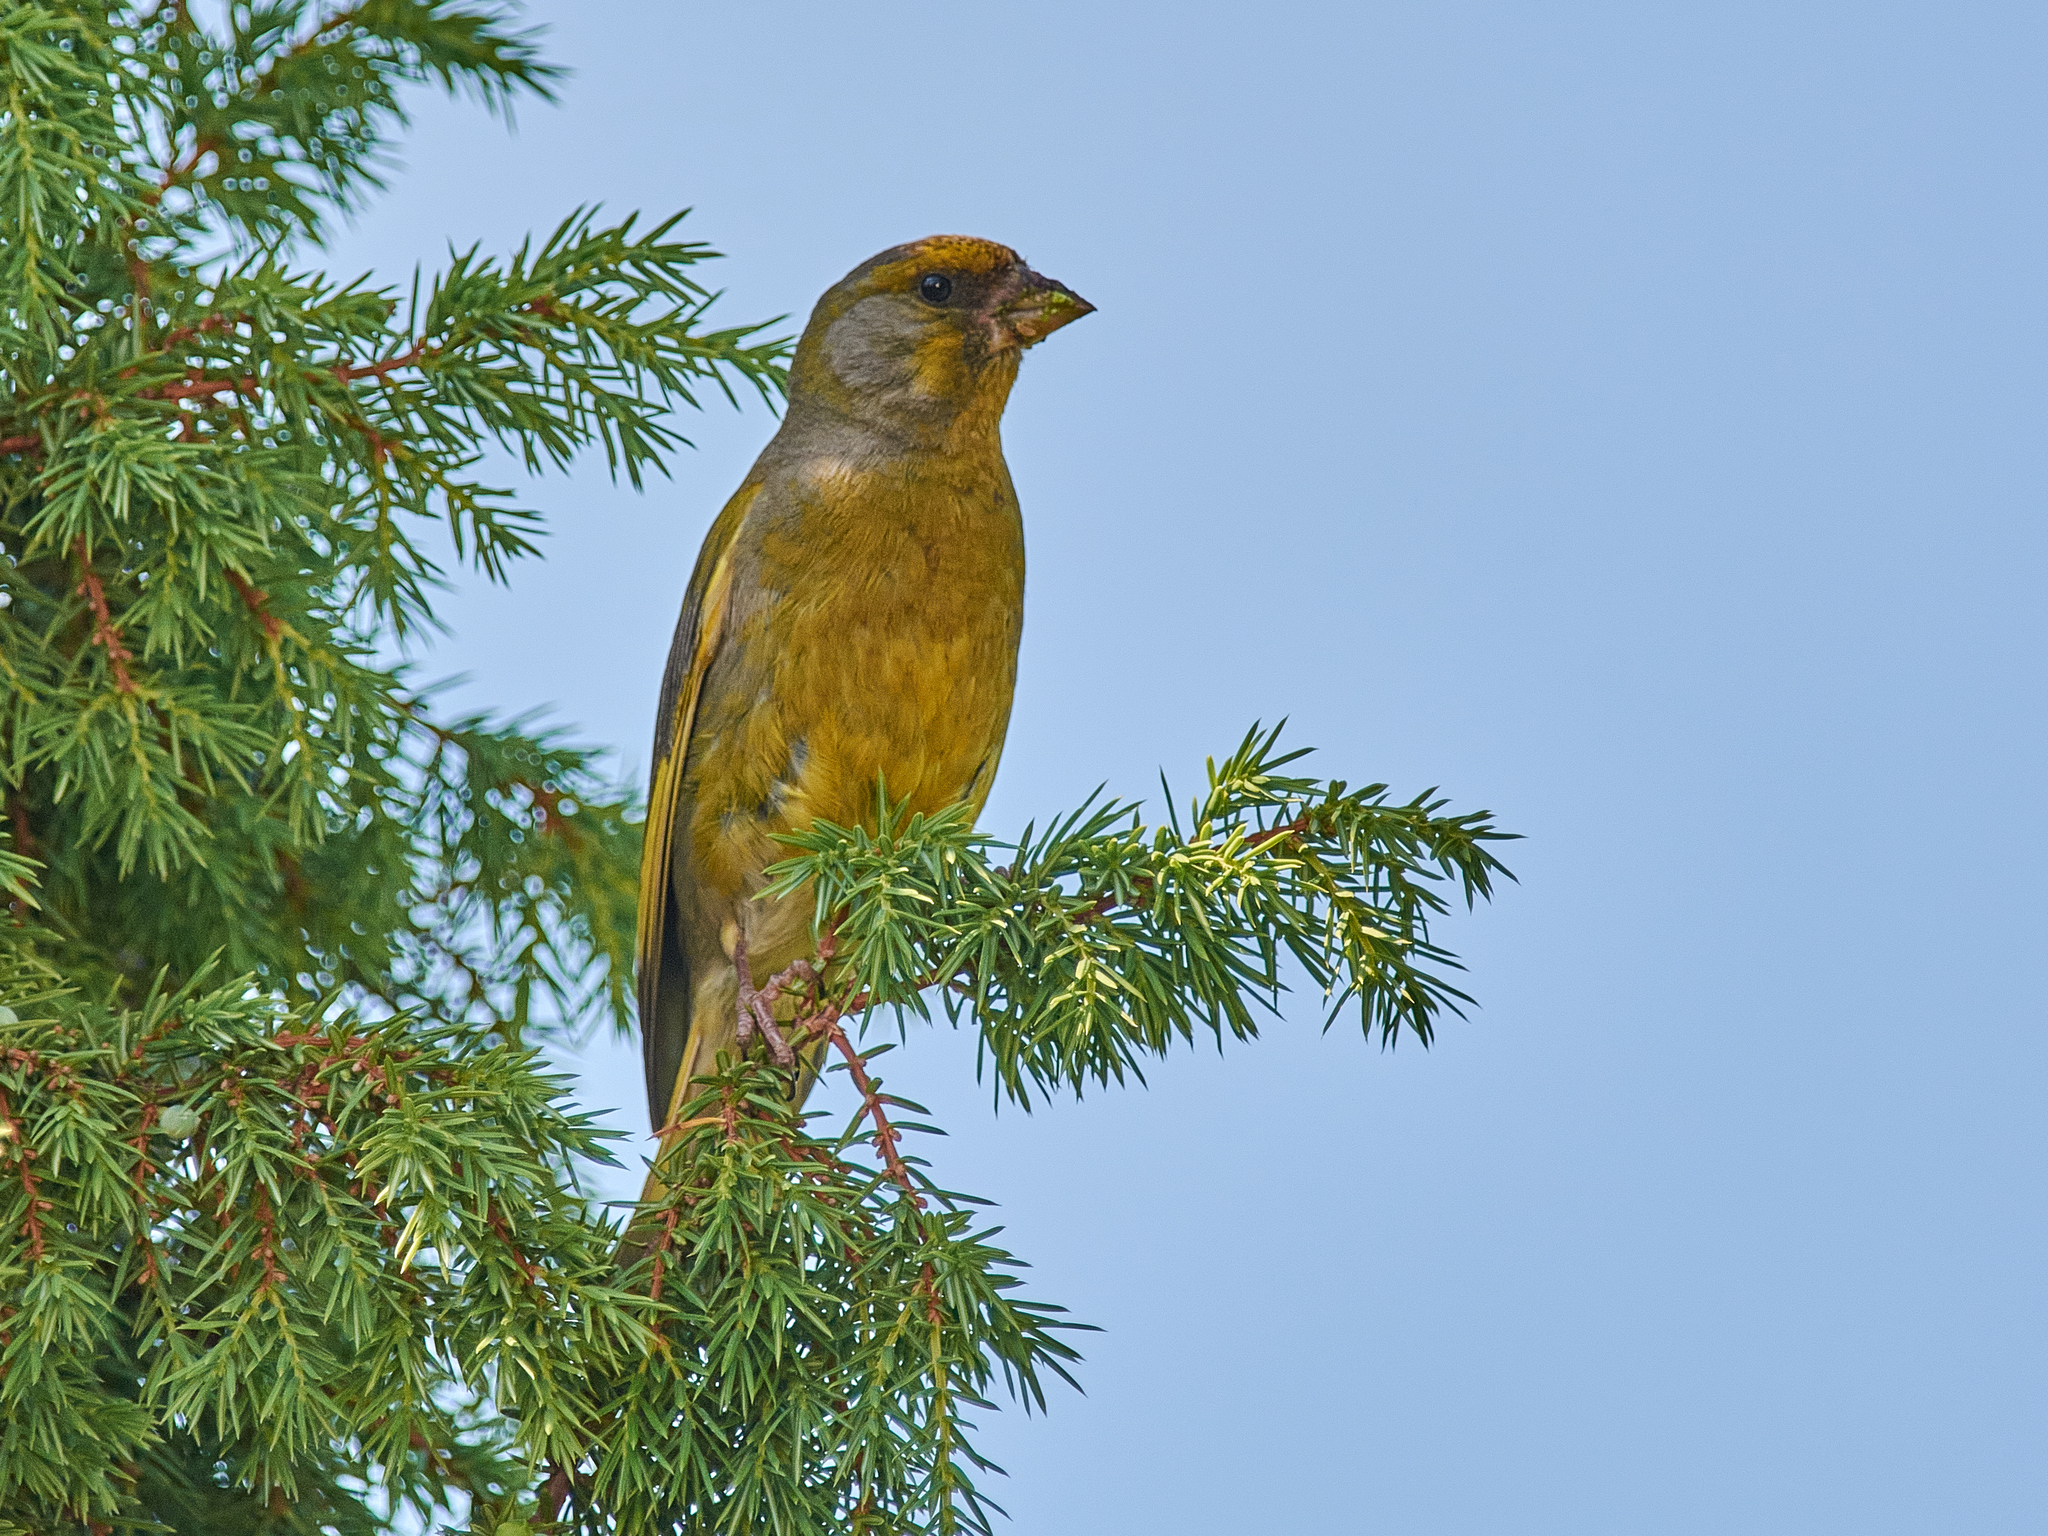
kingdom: Plantae
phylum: Tracheophyta
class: Liliopsida
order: Poales
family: Poaceae
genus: Chloris
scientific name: Chloris chloris
